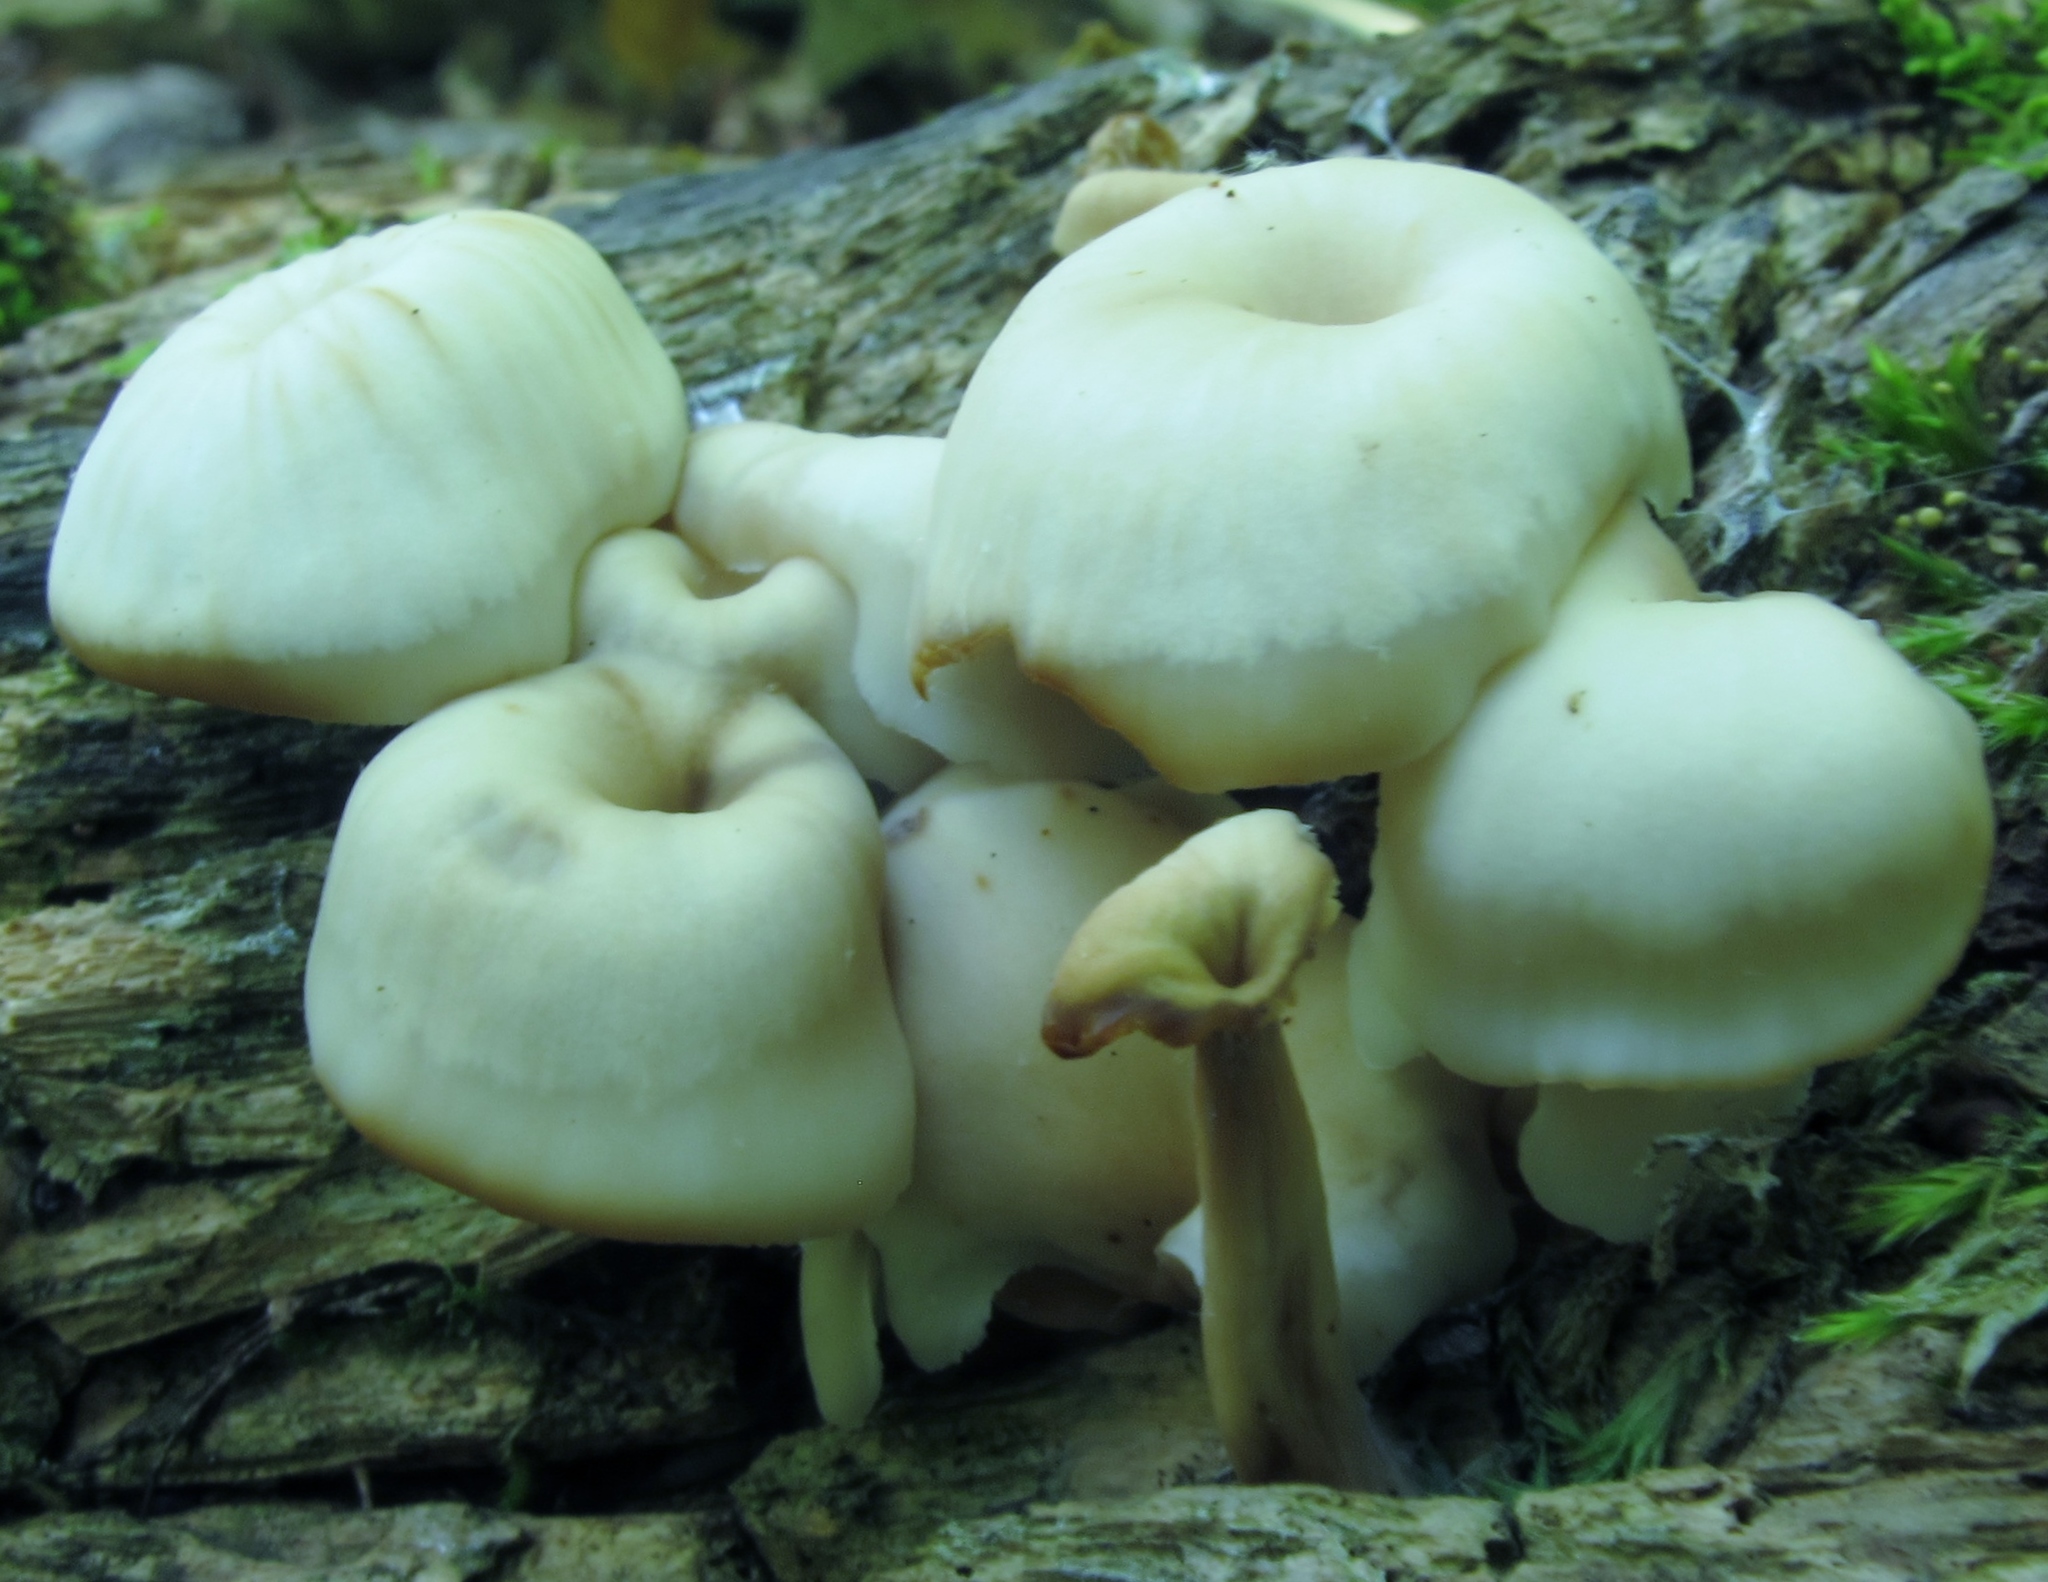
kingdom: Fungi
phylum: Basidiomycota
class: Agaricomycetes
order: Russulales
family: Auriscalpiaceae
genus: Lentinellus
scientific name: Lentinellus micheneri
